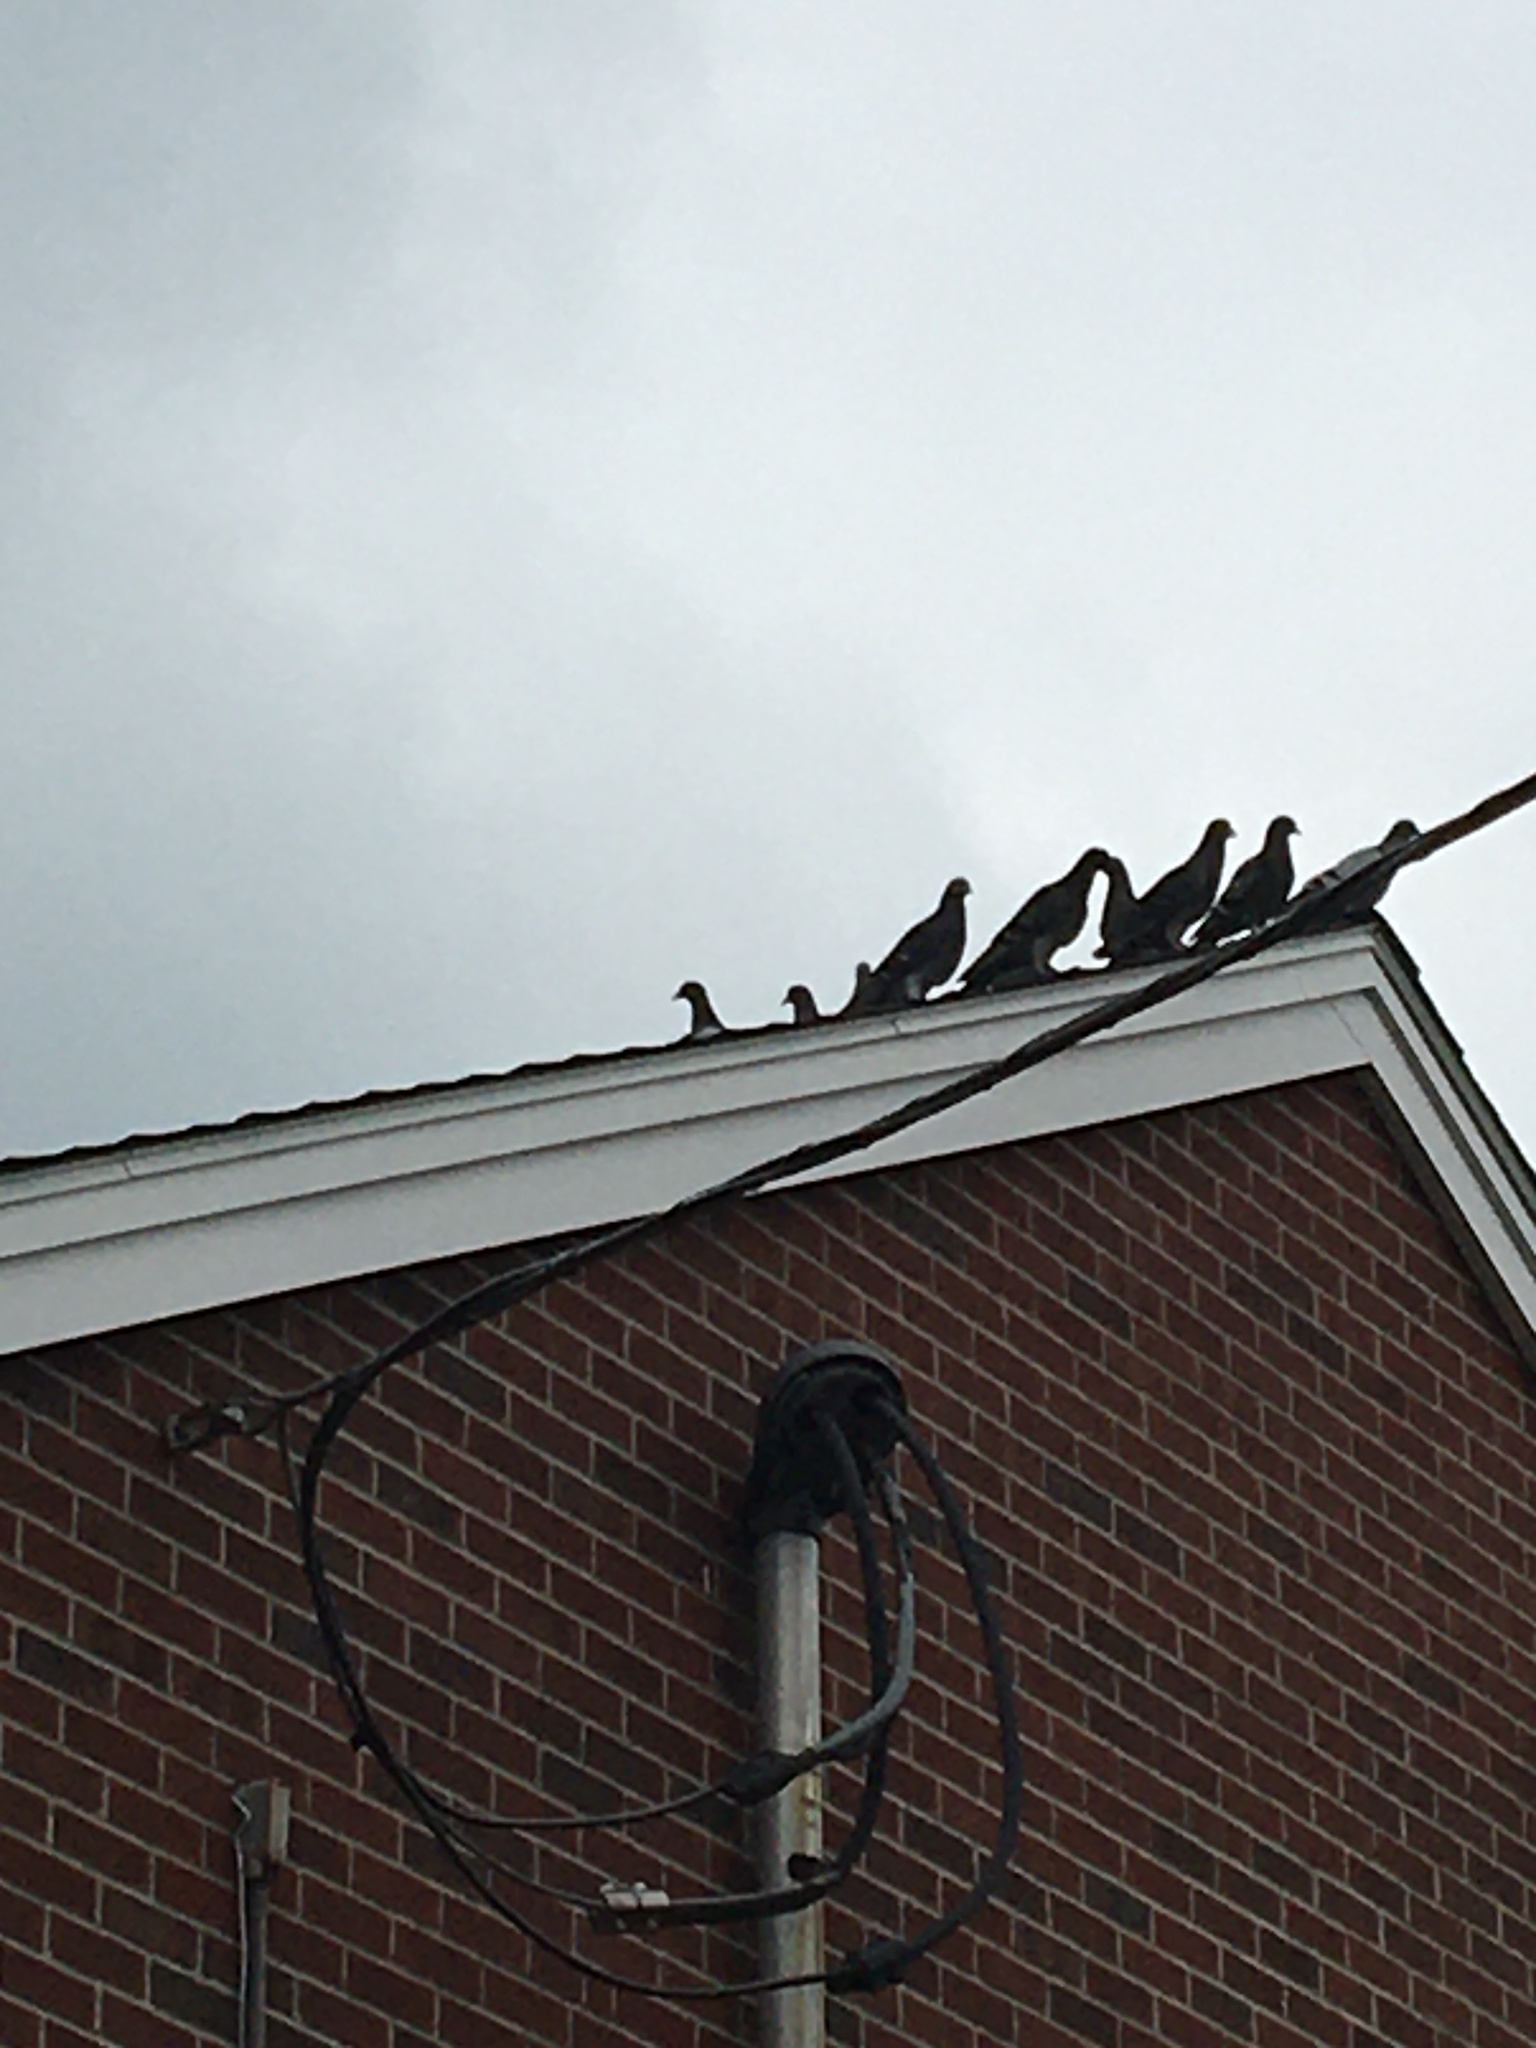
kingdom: Animalia
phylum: Chordata
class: Aves
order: Columbiformes
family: Columbidae
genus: Columba
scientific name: Columba livia
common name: Rock pigeon
